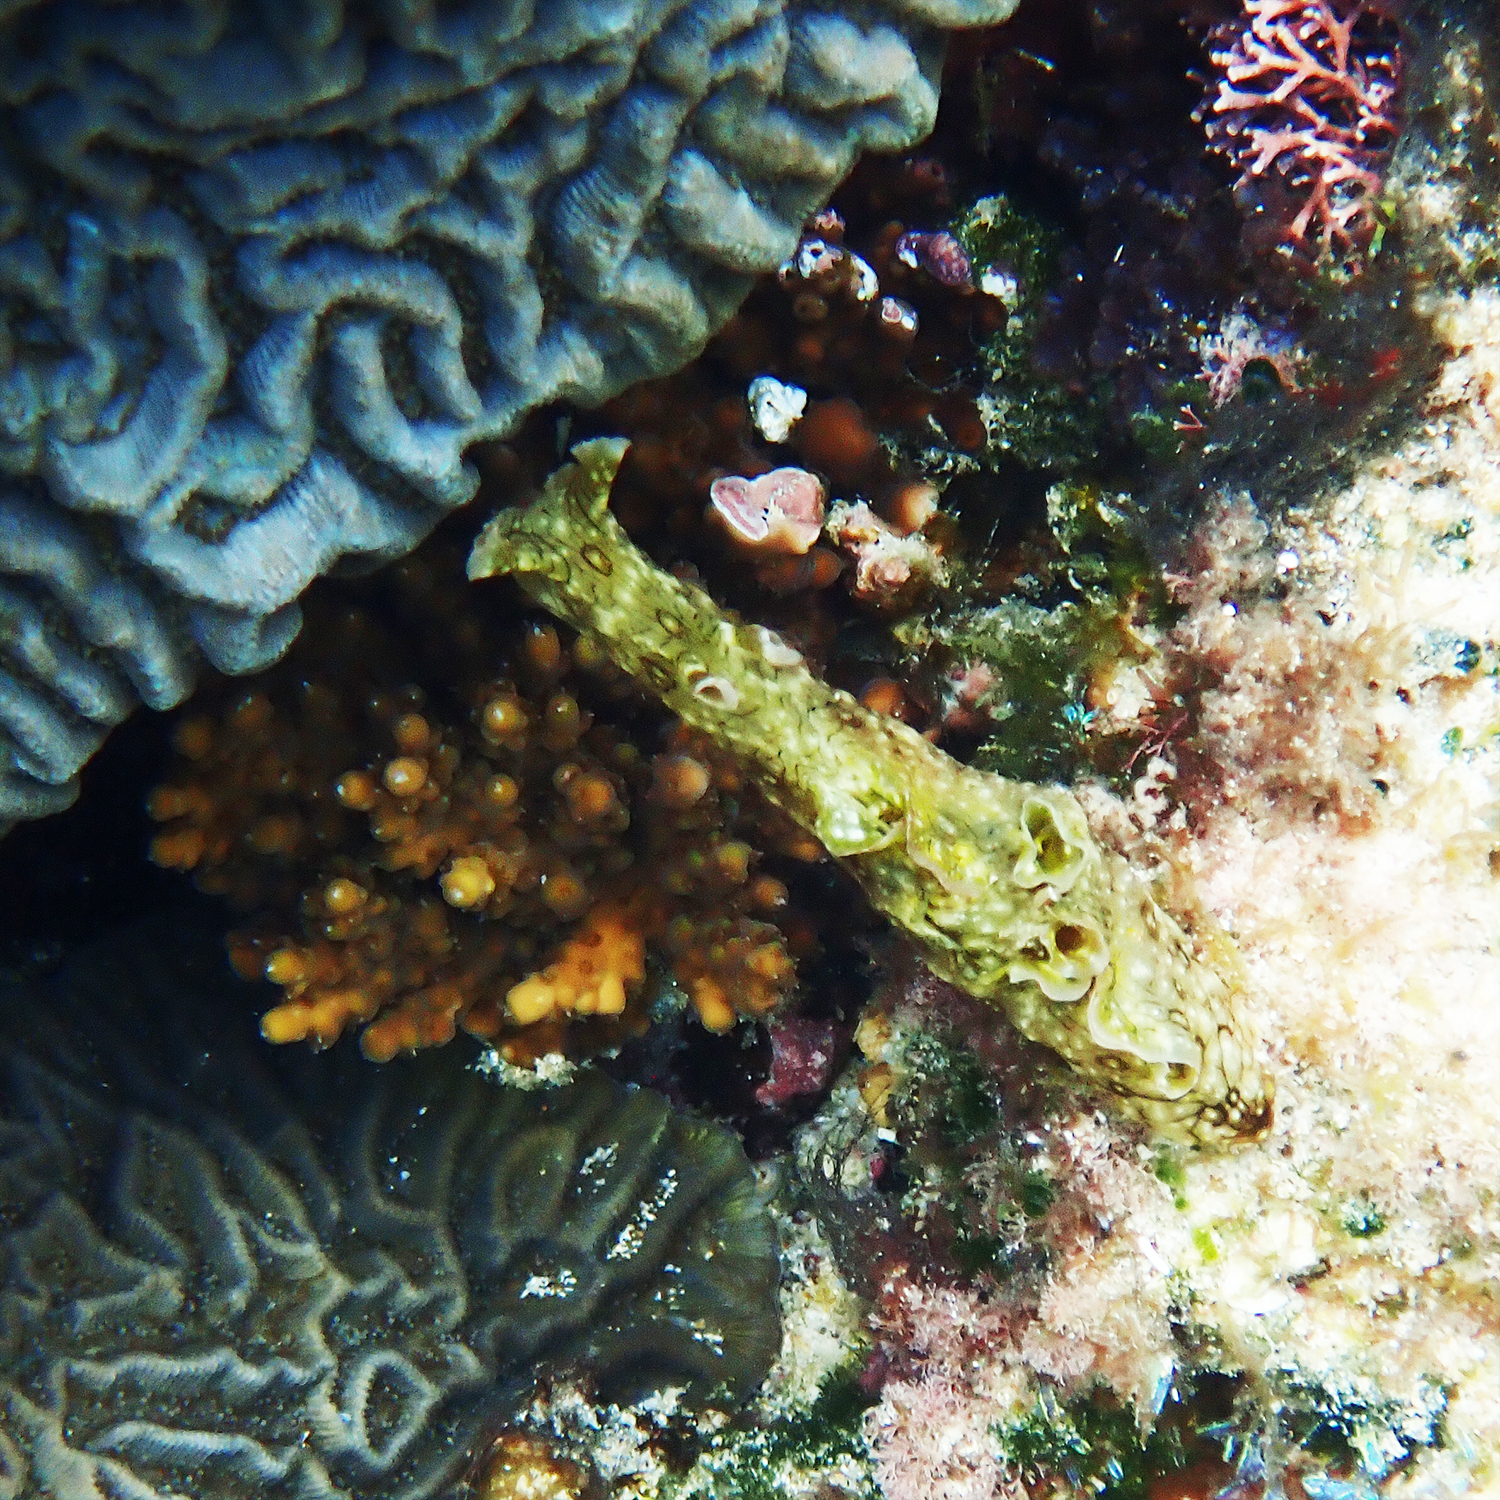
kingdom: Animalia
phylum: Mollusca
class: Gastropoda
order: Aplysiida
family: Aplysiidae
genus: Aplysia
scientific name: Aplysia argus
